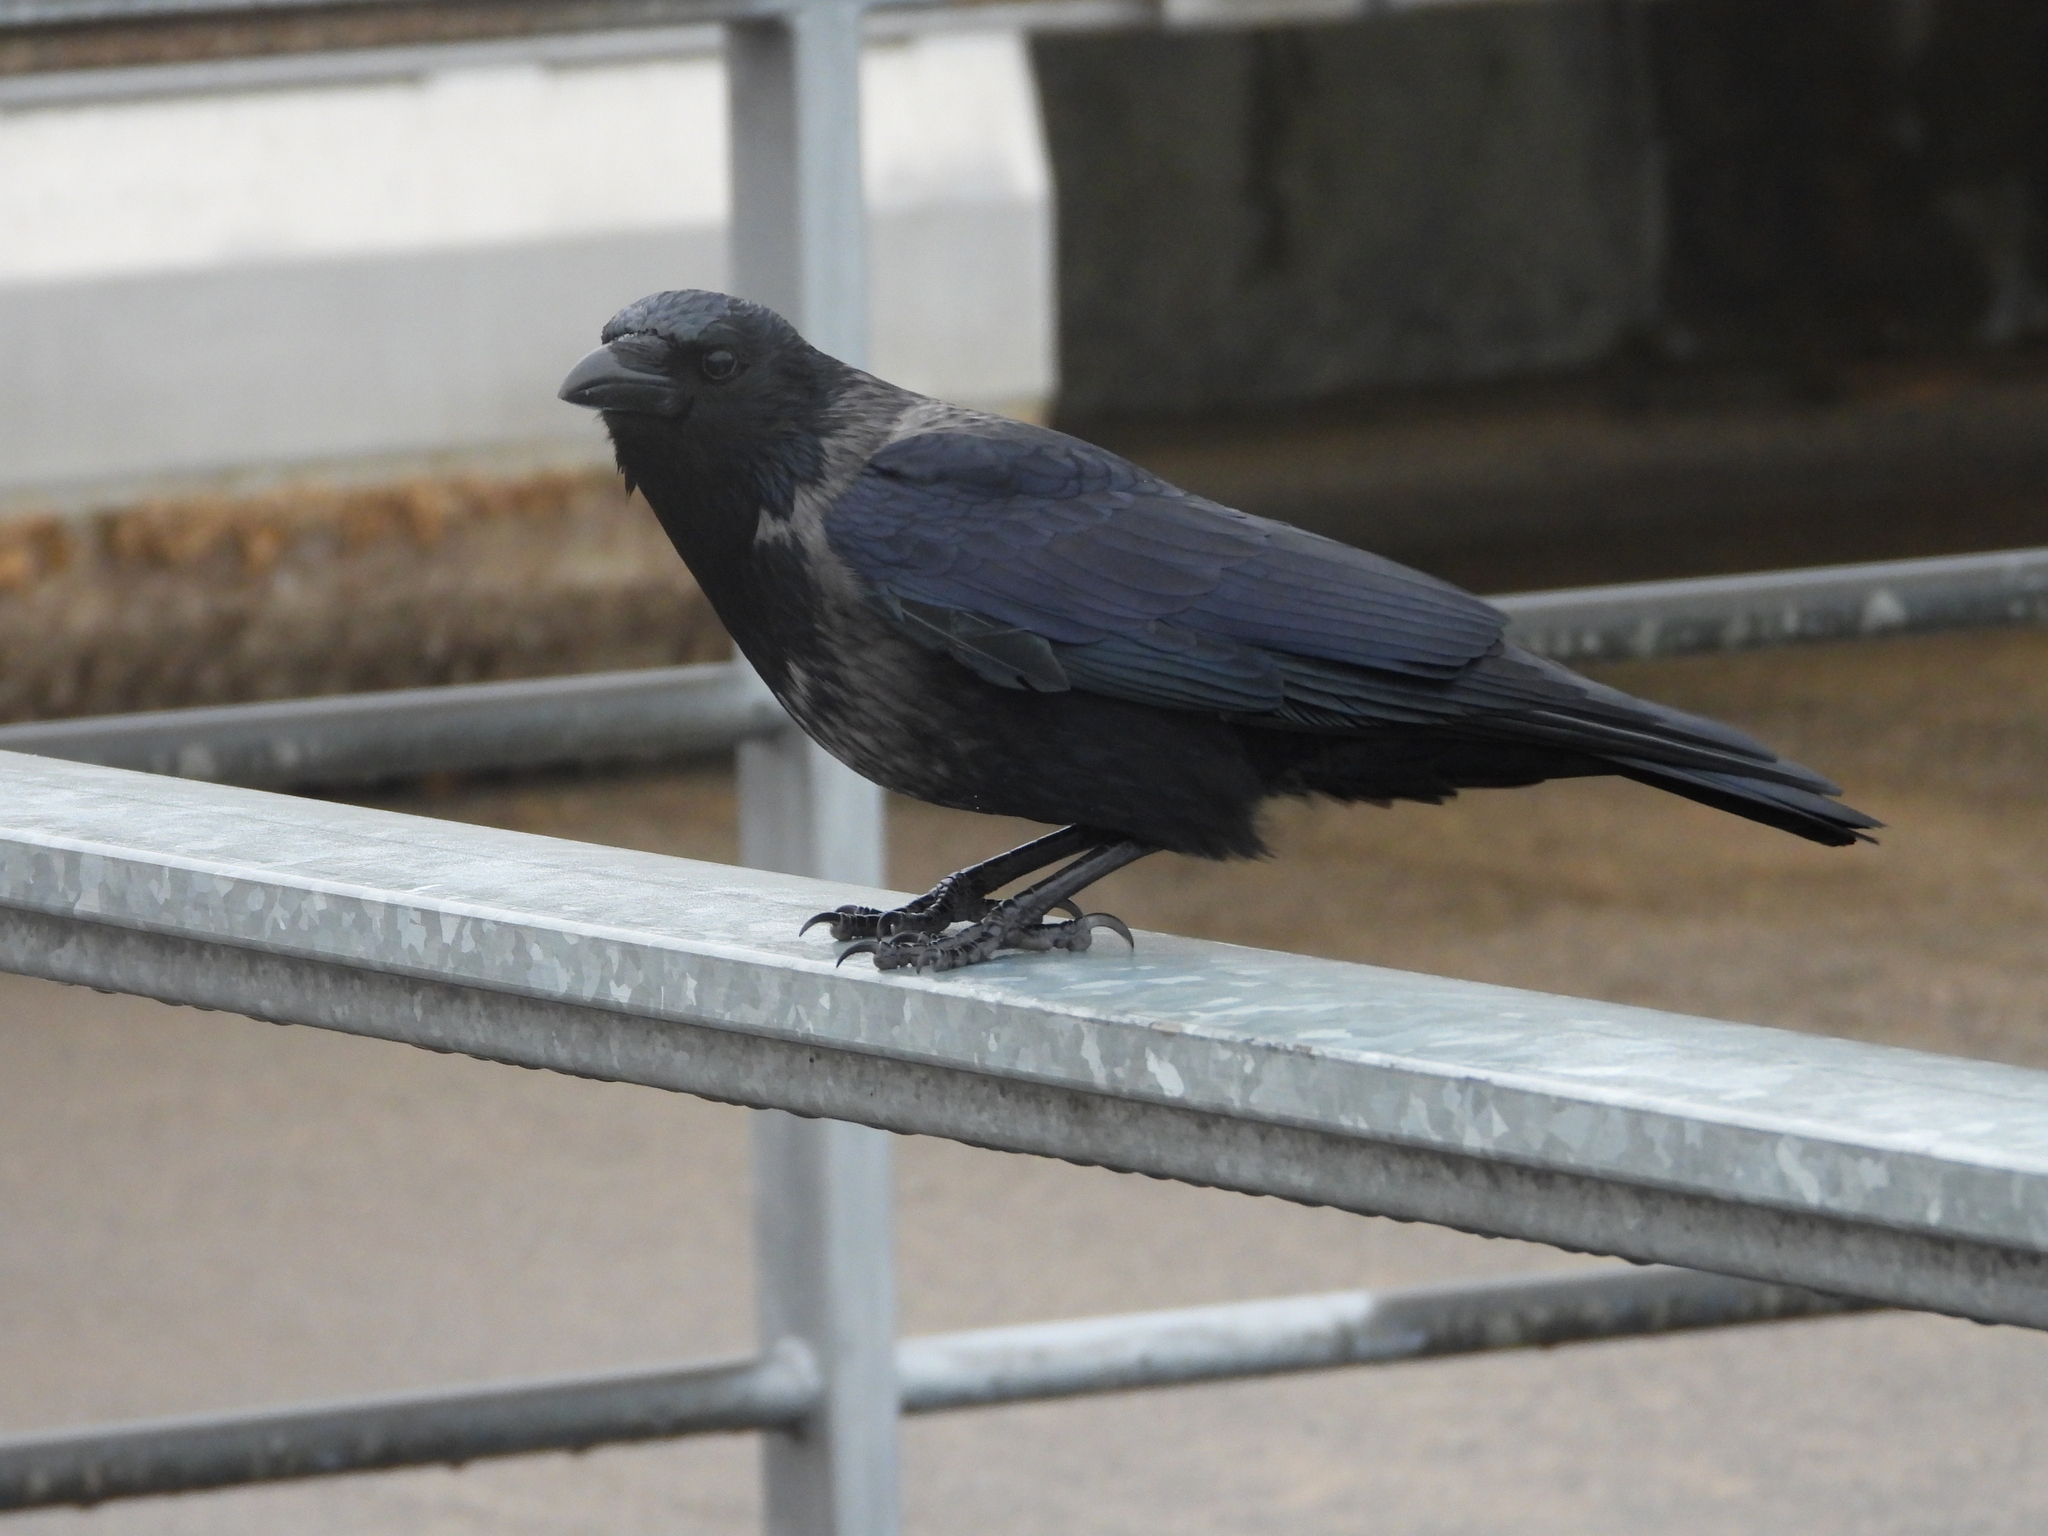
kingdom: Animalia
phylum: Chordata
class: Aves
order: Passeriformes
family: Corvidae
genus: Corvus
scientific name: Corvus
